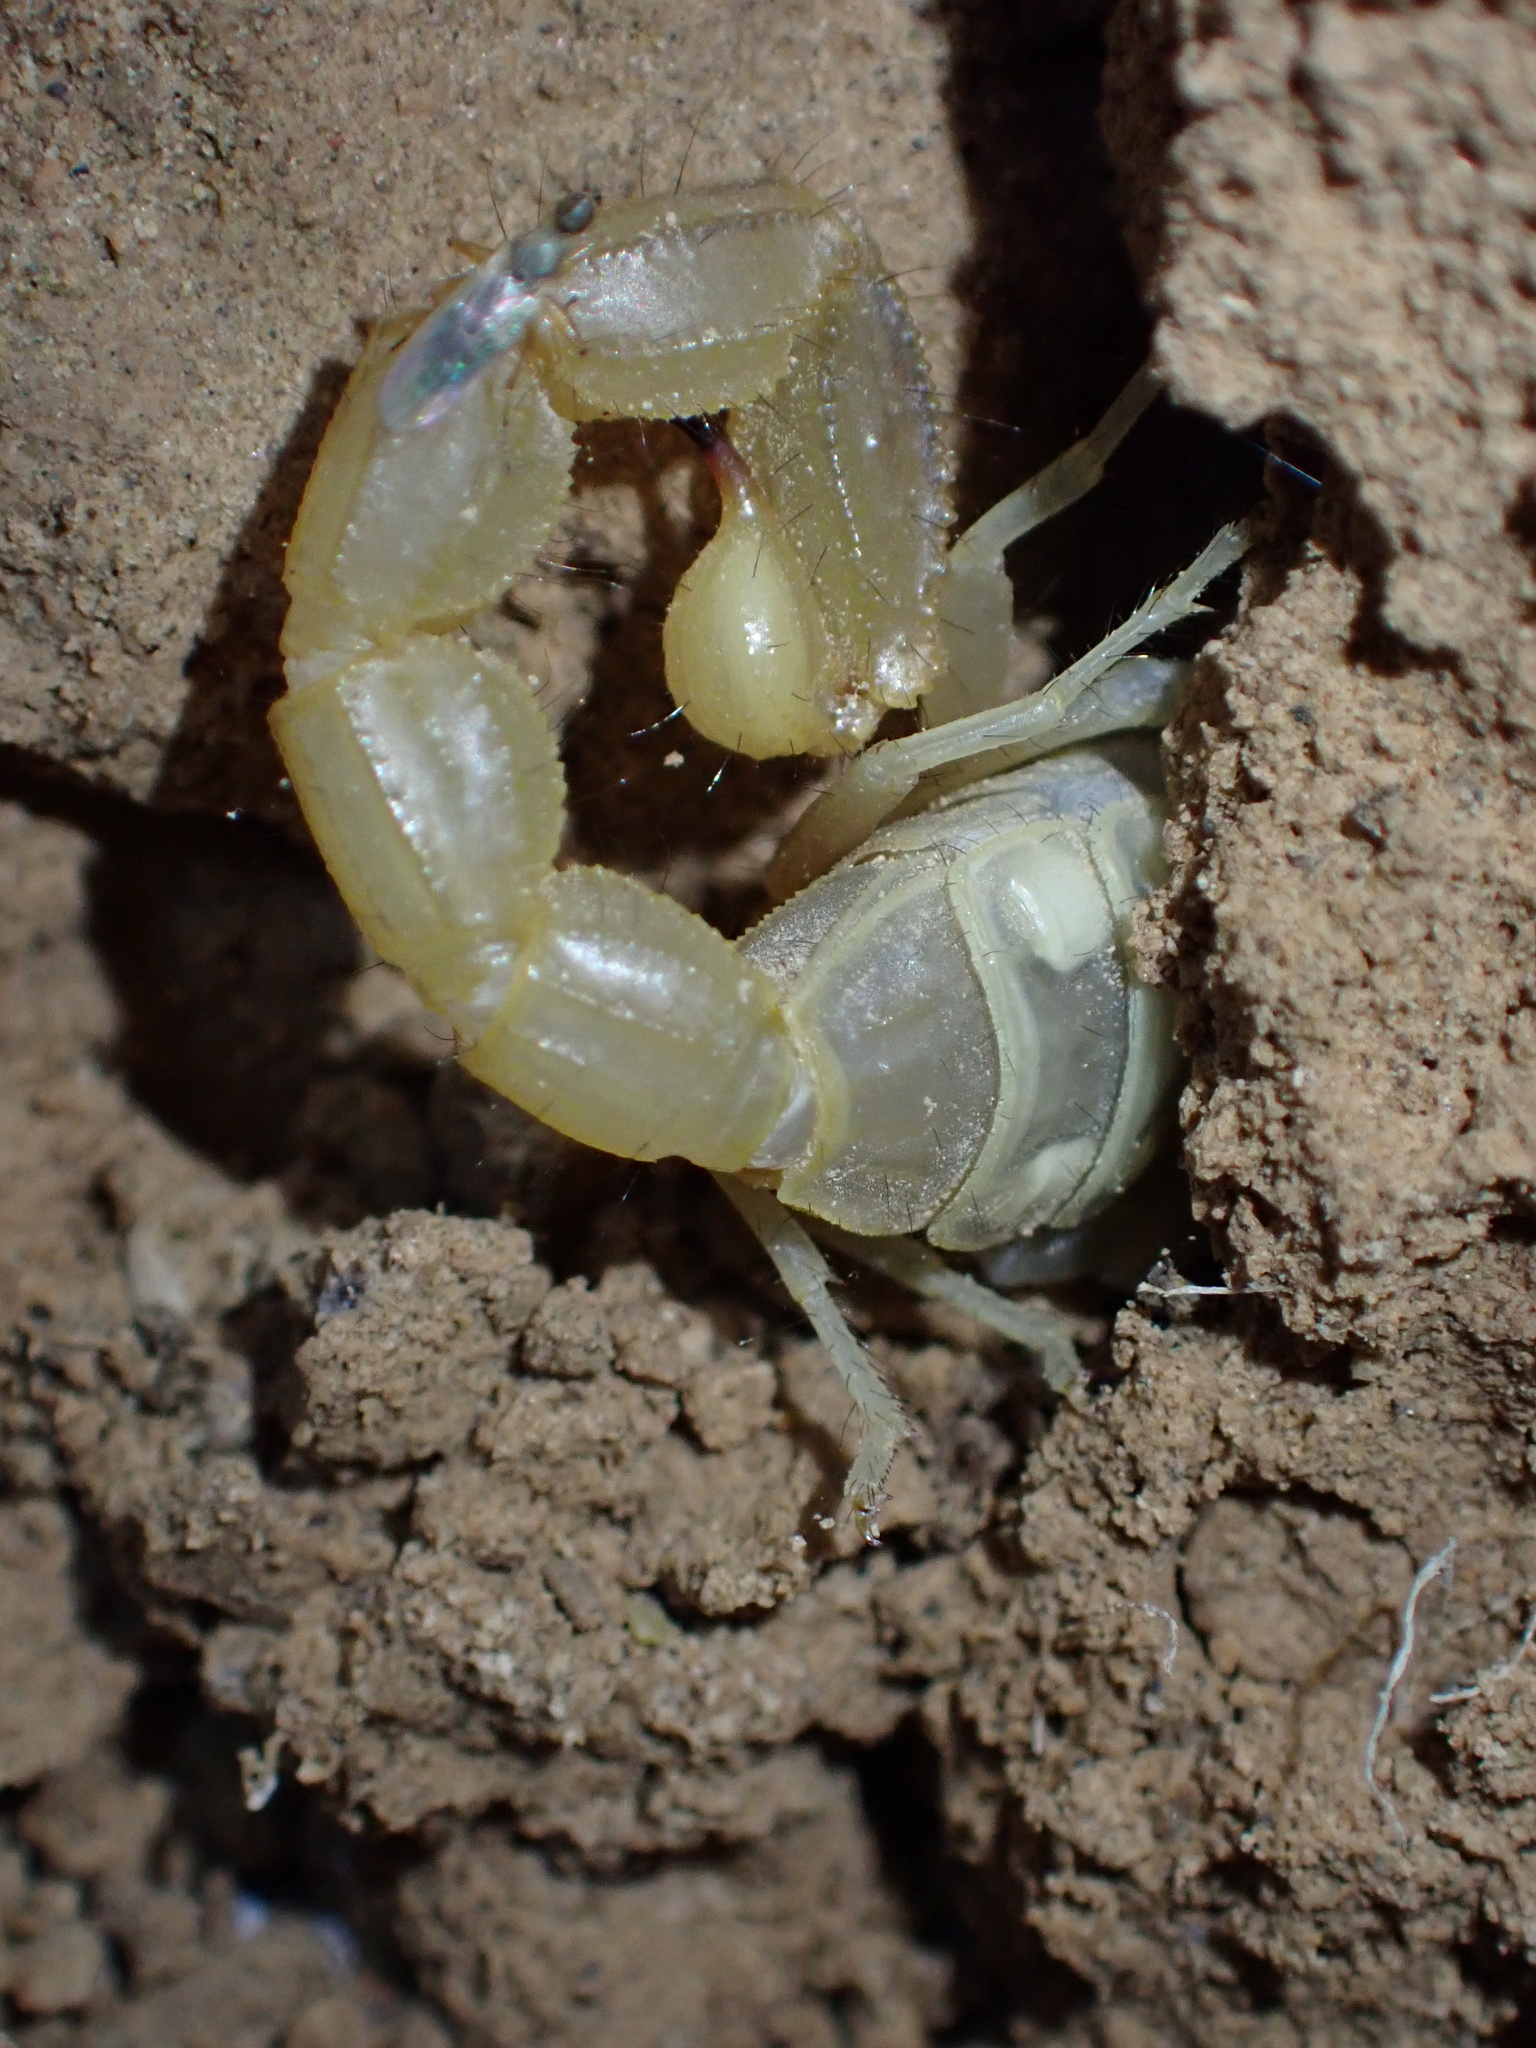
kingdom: Animalia
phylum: Arthropoda
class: Arachnida
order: Scorpiones
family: Buthidae
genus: Mesobuthus
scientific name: Mesobuthus crucittii
